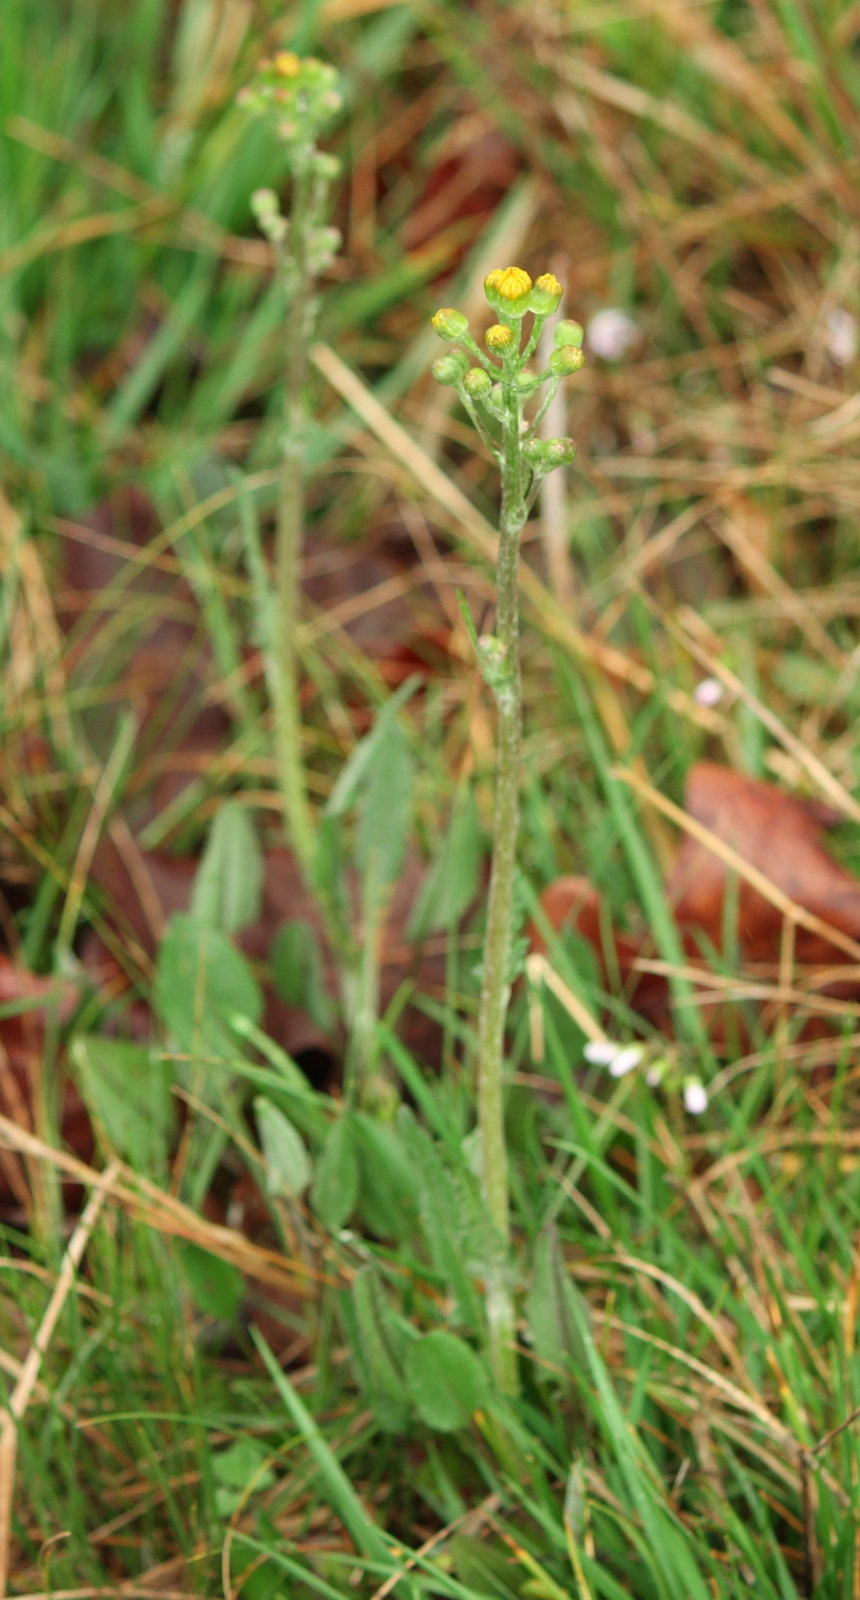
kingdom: Plantae
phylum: Tracheophyta
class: Magnoliopsida
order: Asterales
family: Asteraceae
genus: Packera
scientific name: Packera dubia
